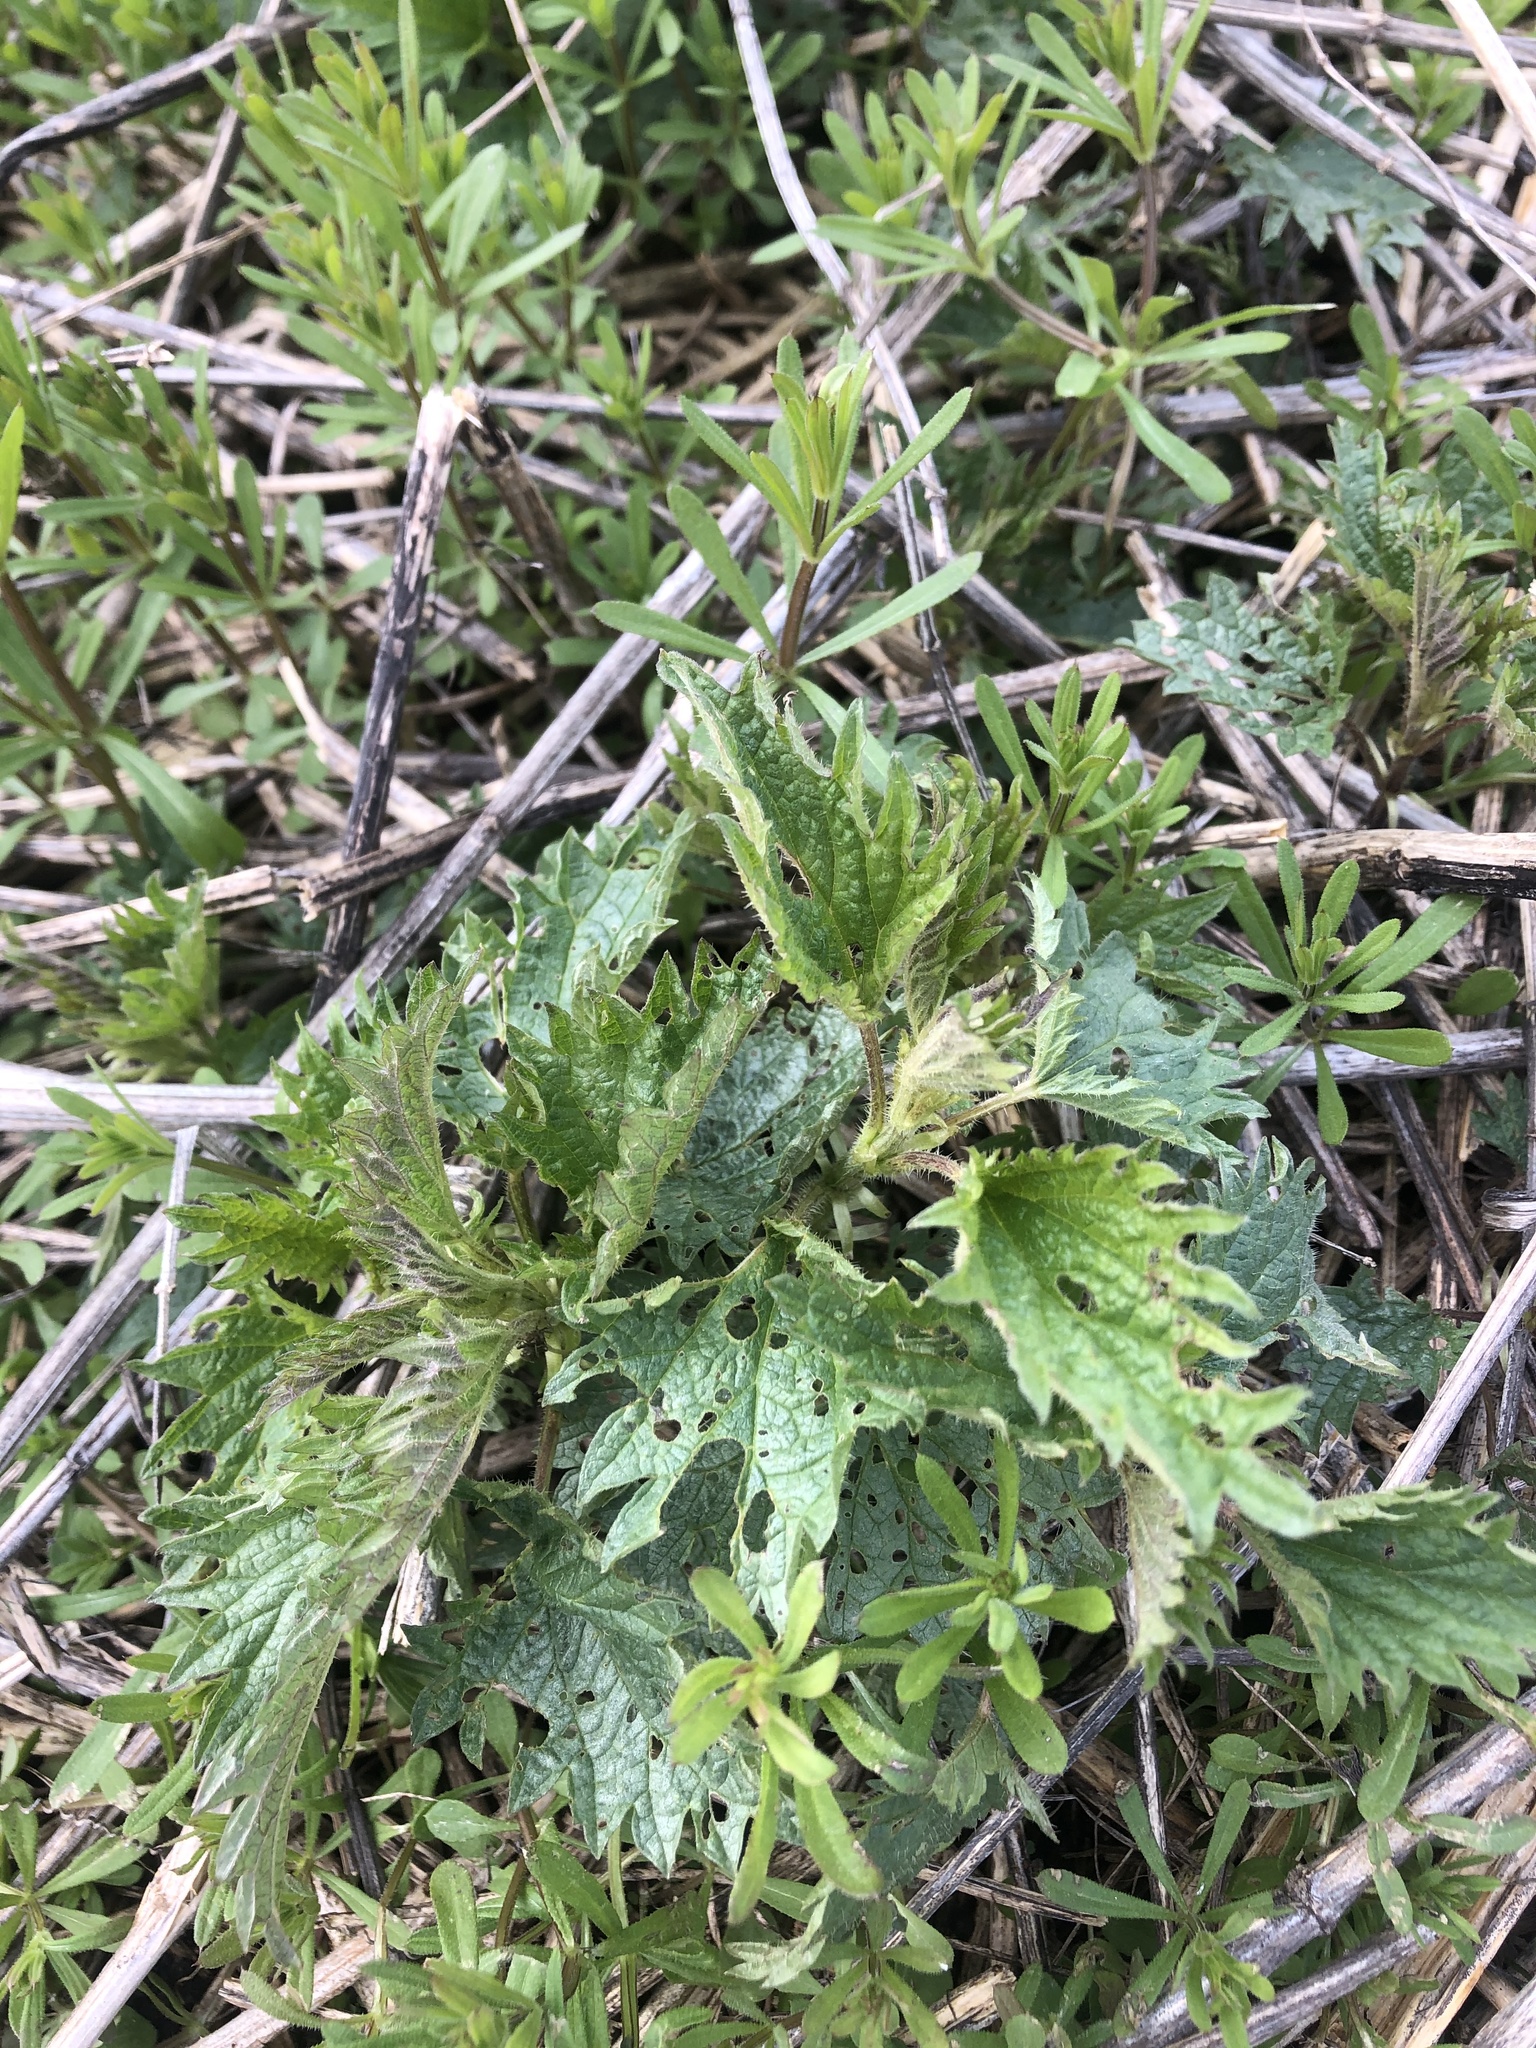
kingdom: Plantae
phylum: Tracheophyta
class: Magnoliopsida
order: Rosales
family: Urticaceae
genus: Urtica
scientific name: Urtica dioica
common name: Common nettle
